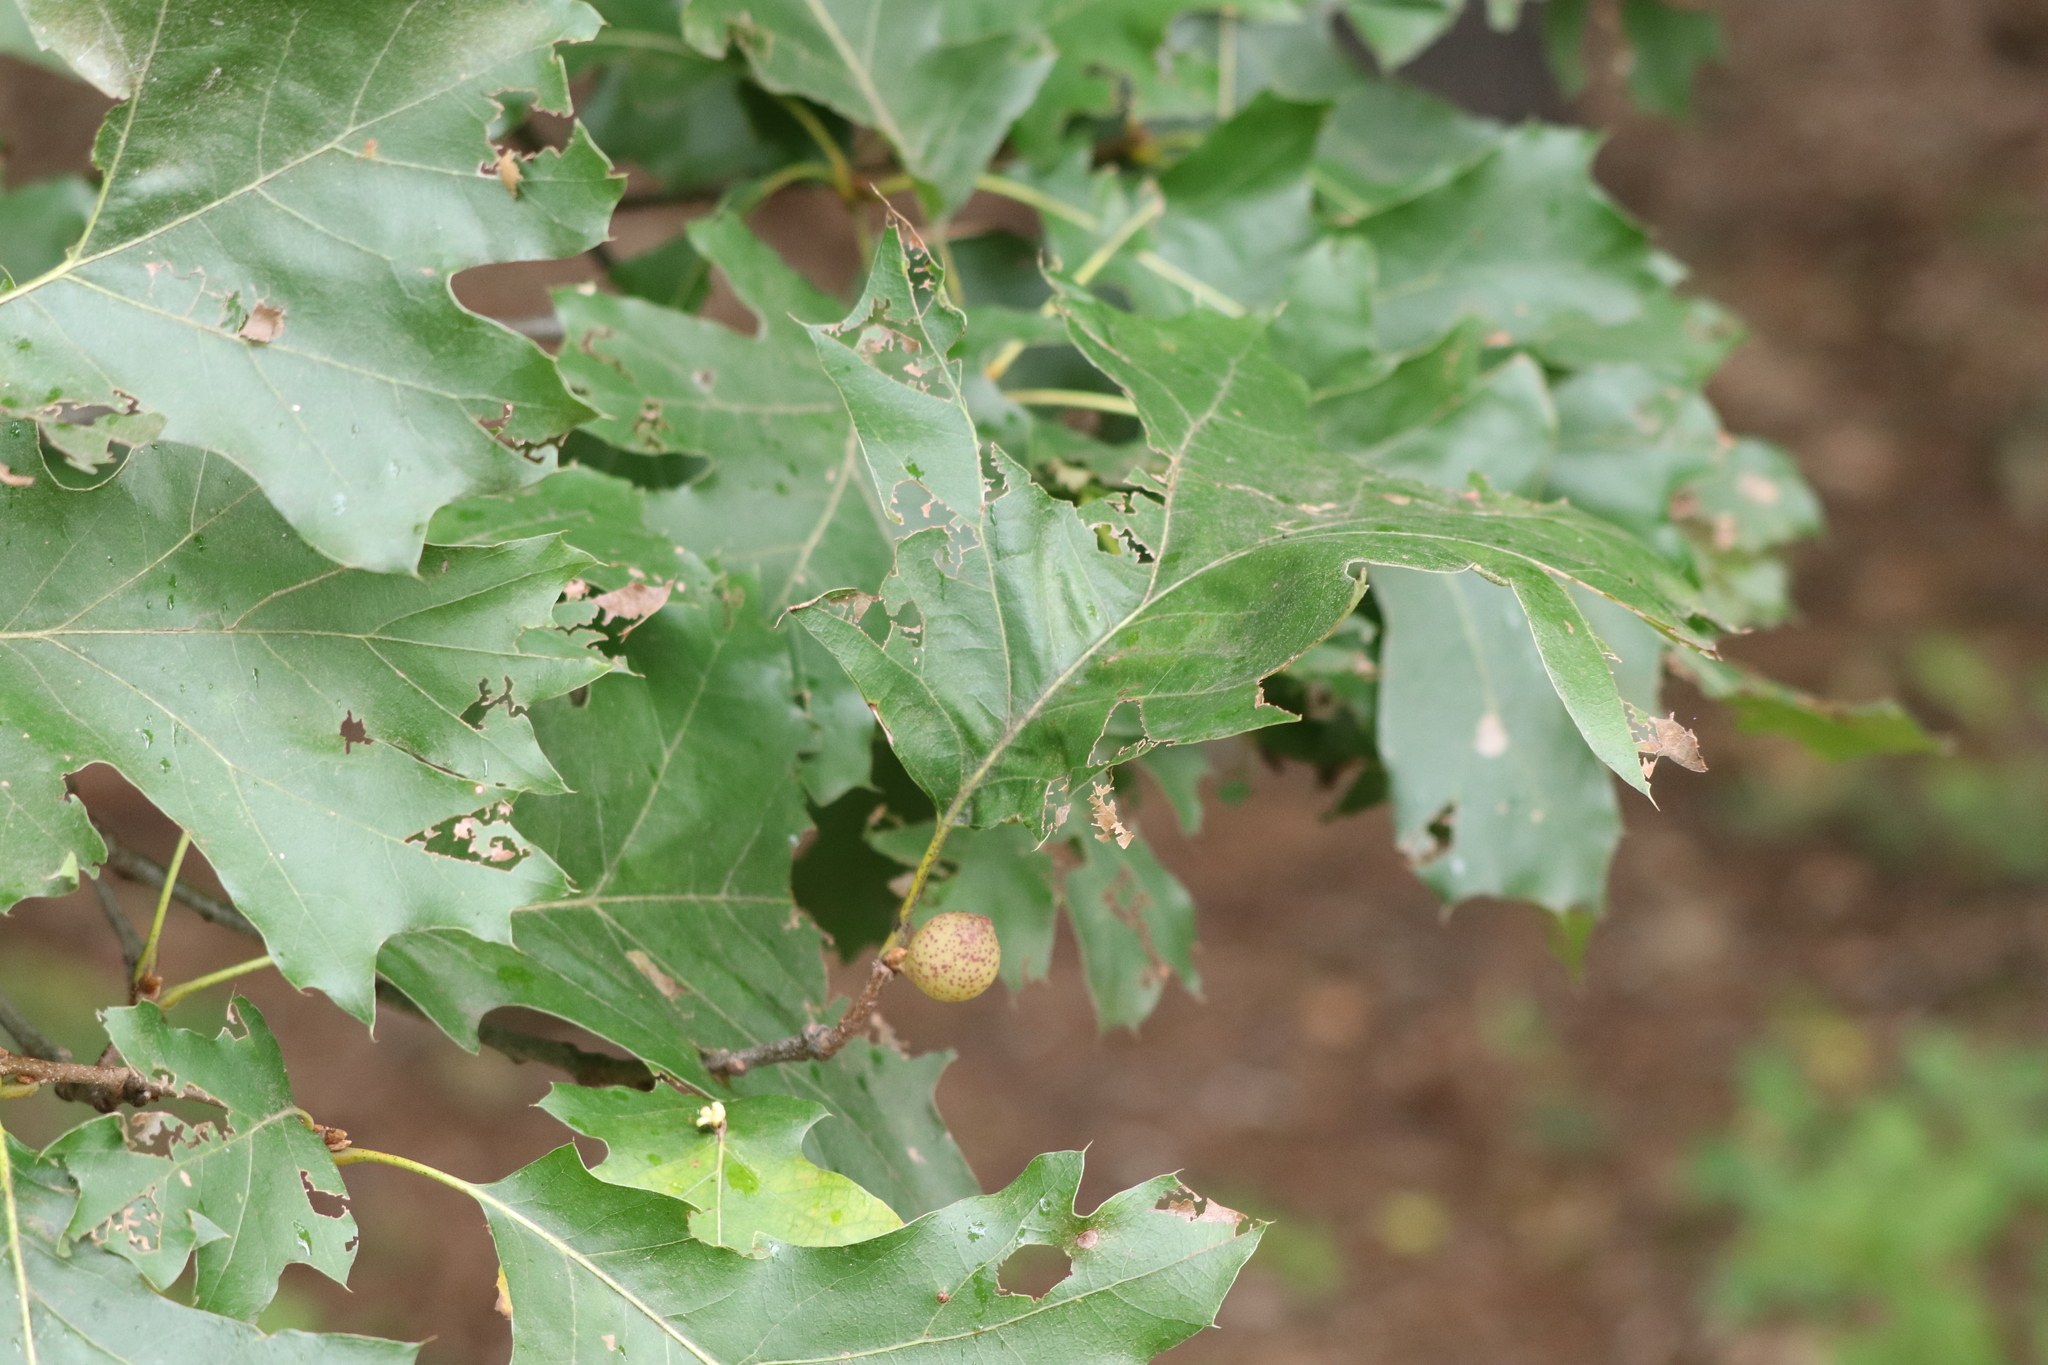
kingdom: Plantae
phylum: Tracheophyta
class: Magnoliopsida
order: Fagales
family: Fagaceae
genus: Quercus
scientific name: Quercus rubra
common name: Red oak
